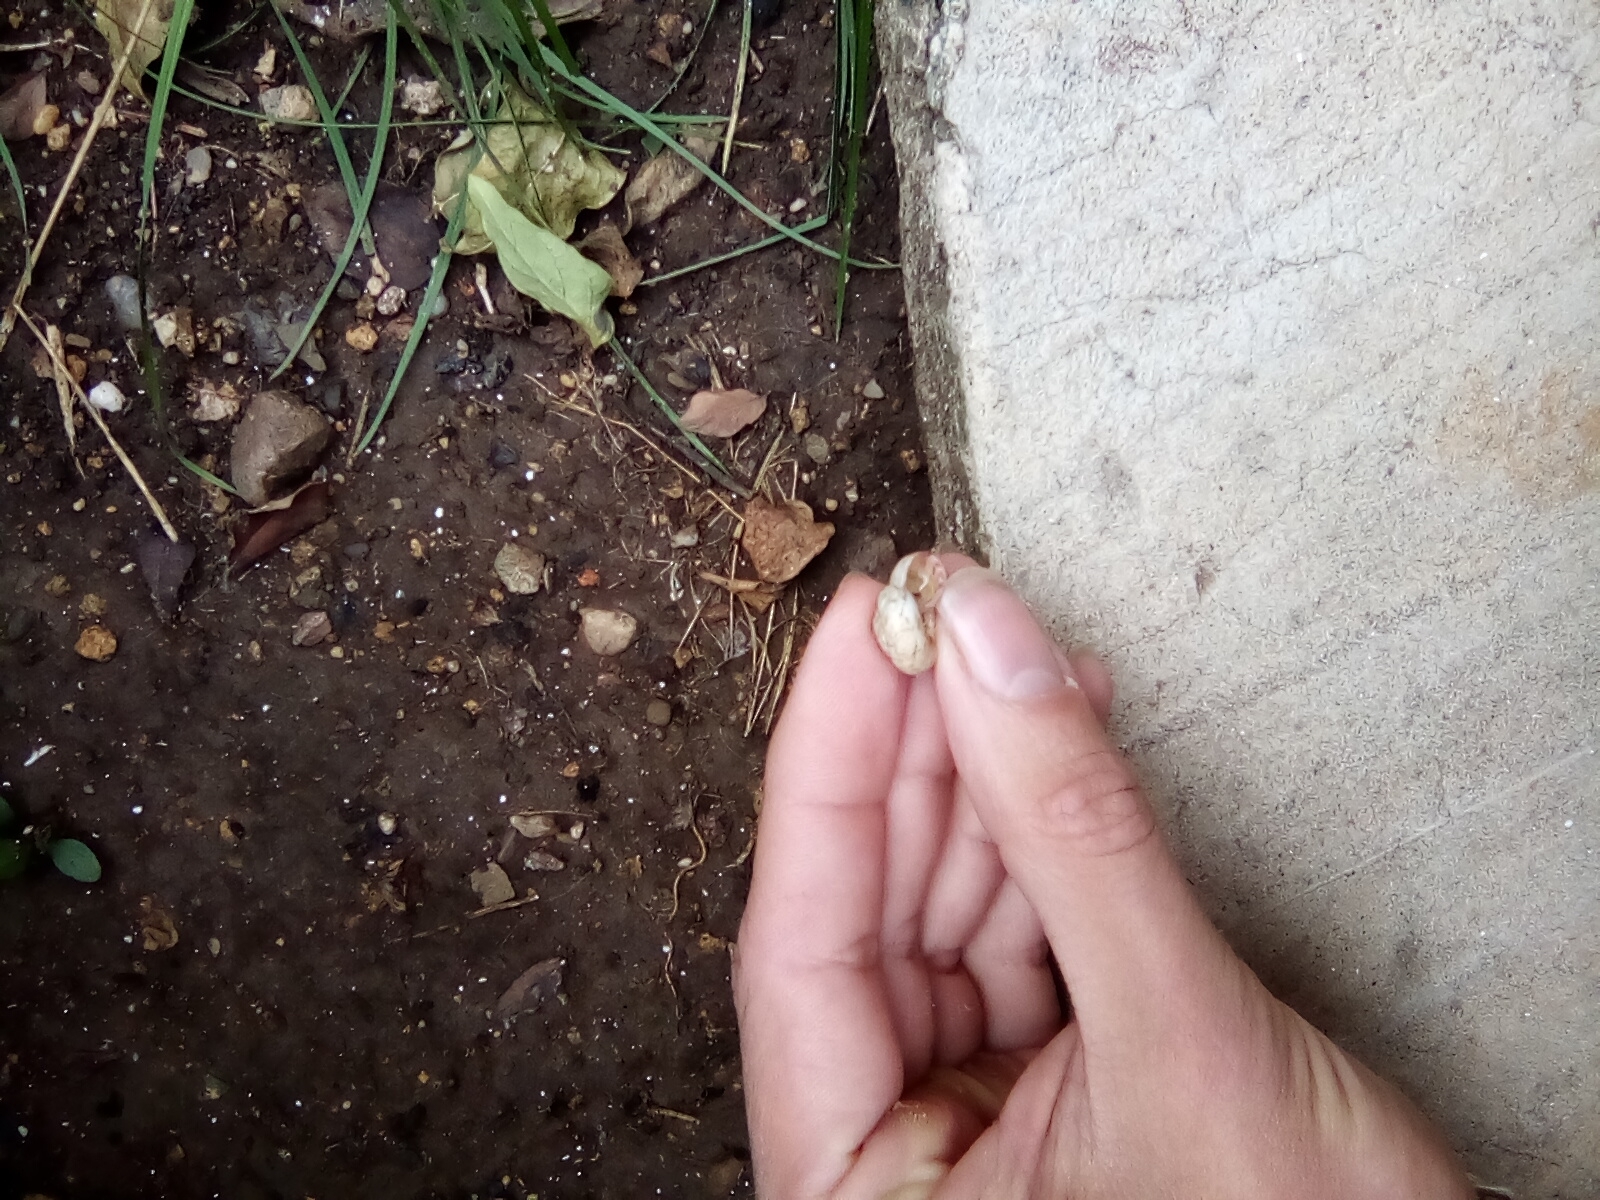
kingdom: Animalia
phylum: Mollusca
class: Gastropoda
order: Stylommatophora
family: Geomitridae
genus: Xeropicta
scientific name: Xeropicta derbentina
